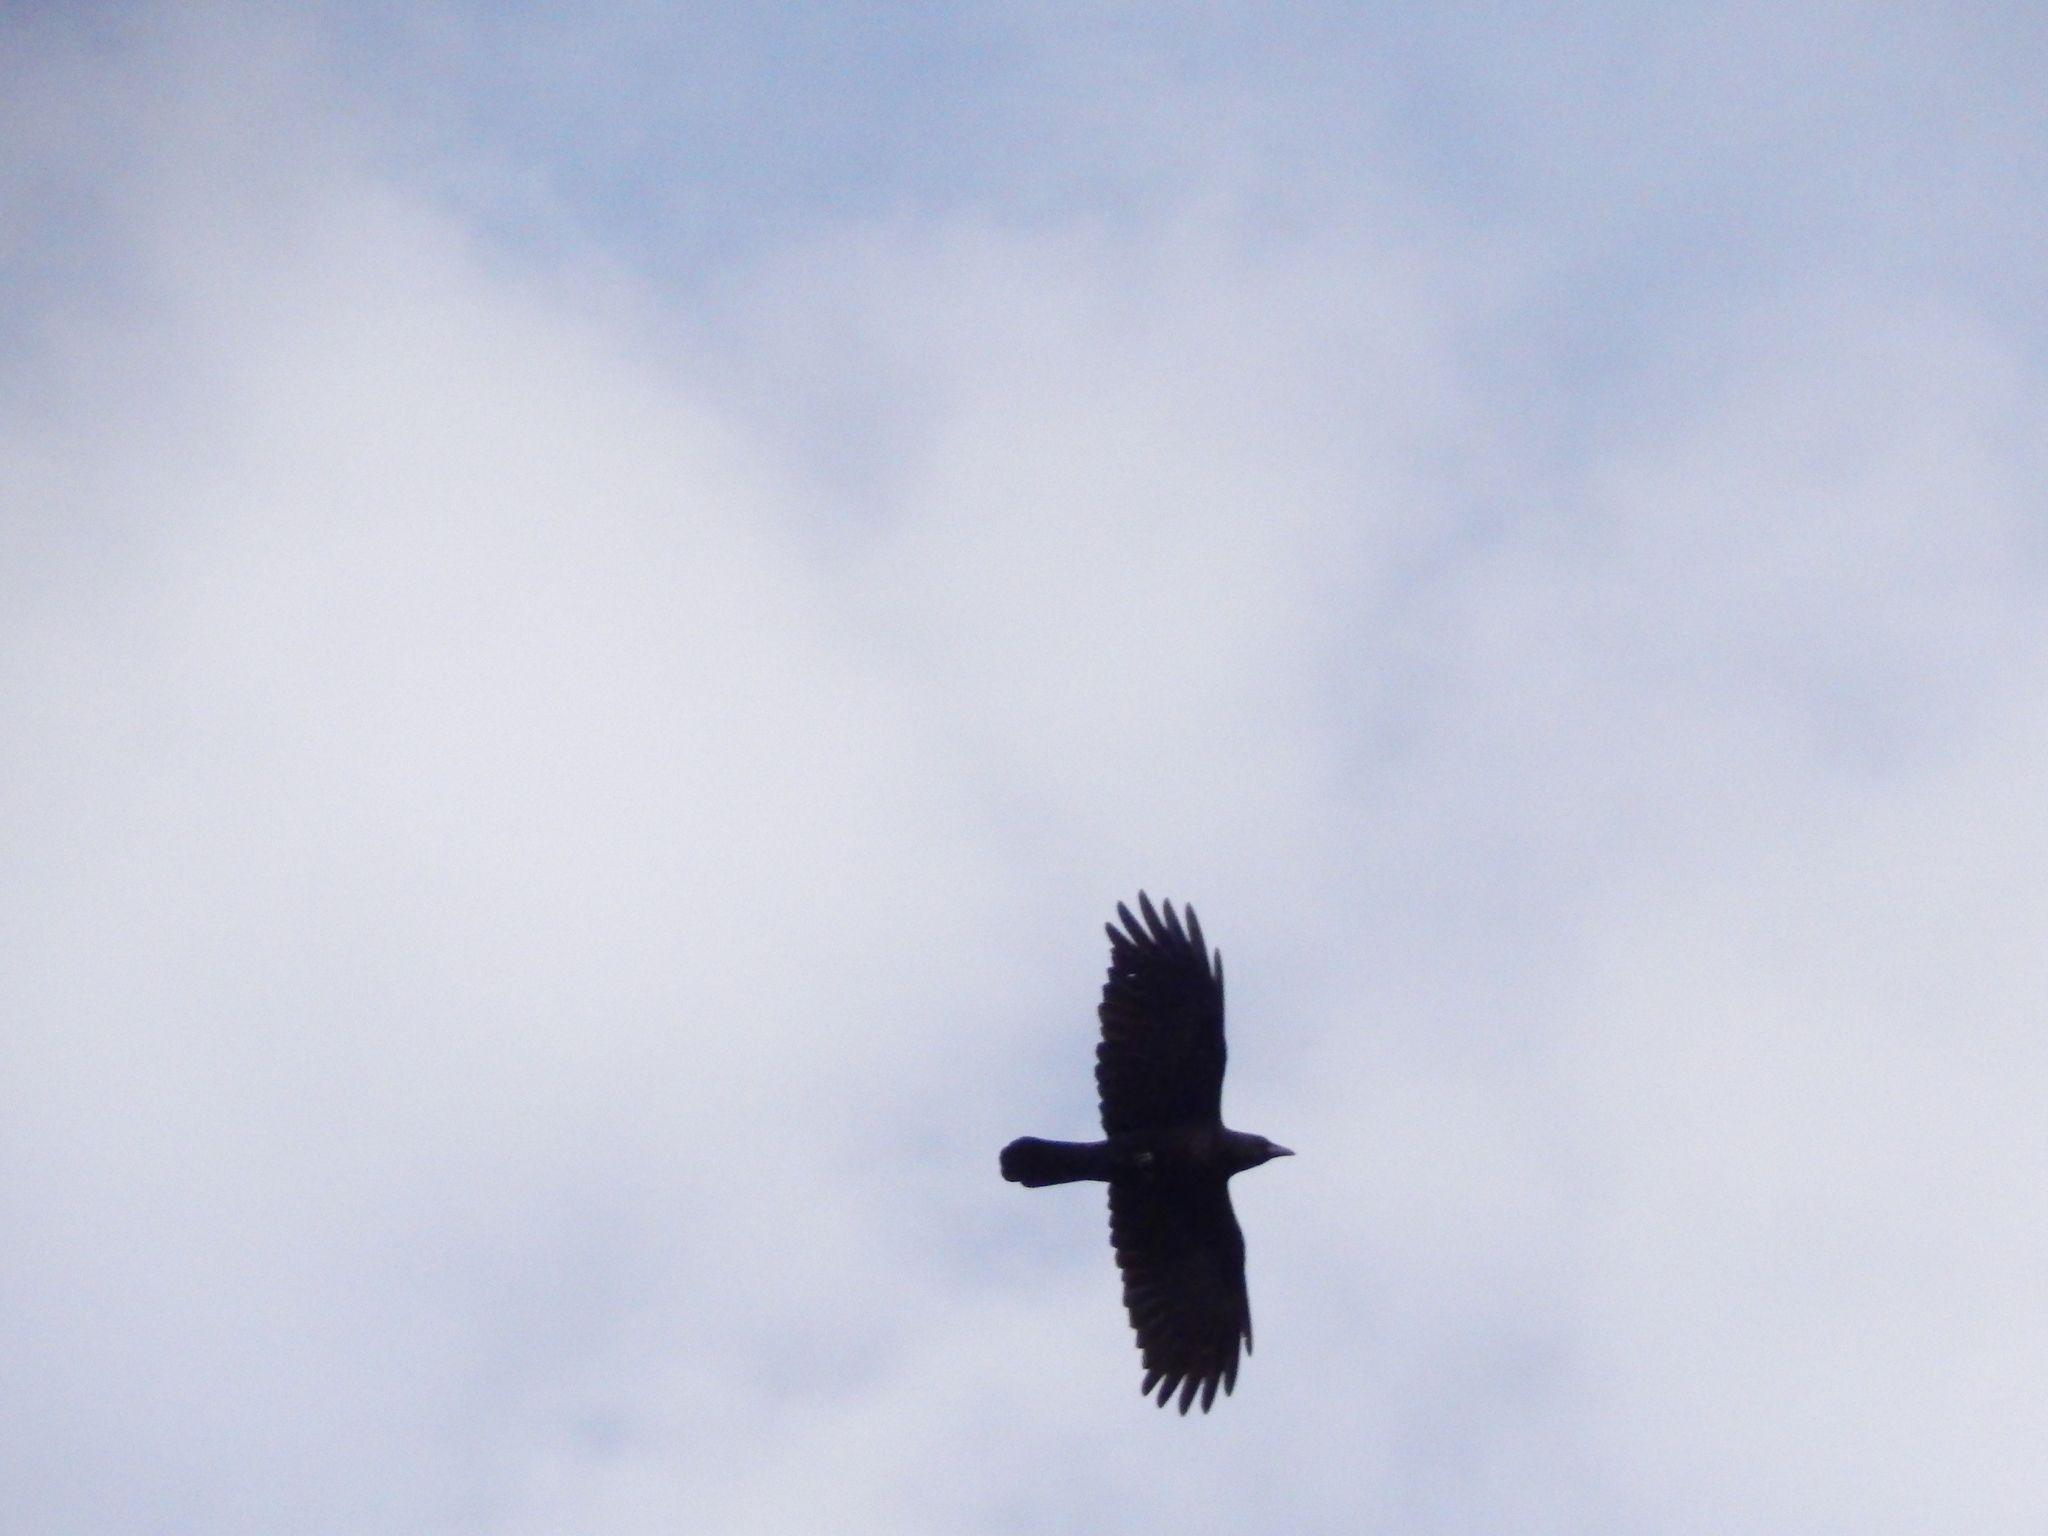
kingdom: Animalia
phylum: Chordata
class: Aves
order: Passeriformes
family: Corvidae
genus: Corvus
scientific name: Corvus brachyrhynchos
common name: American crow
